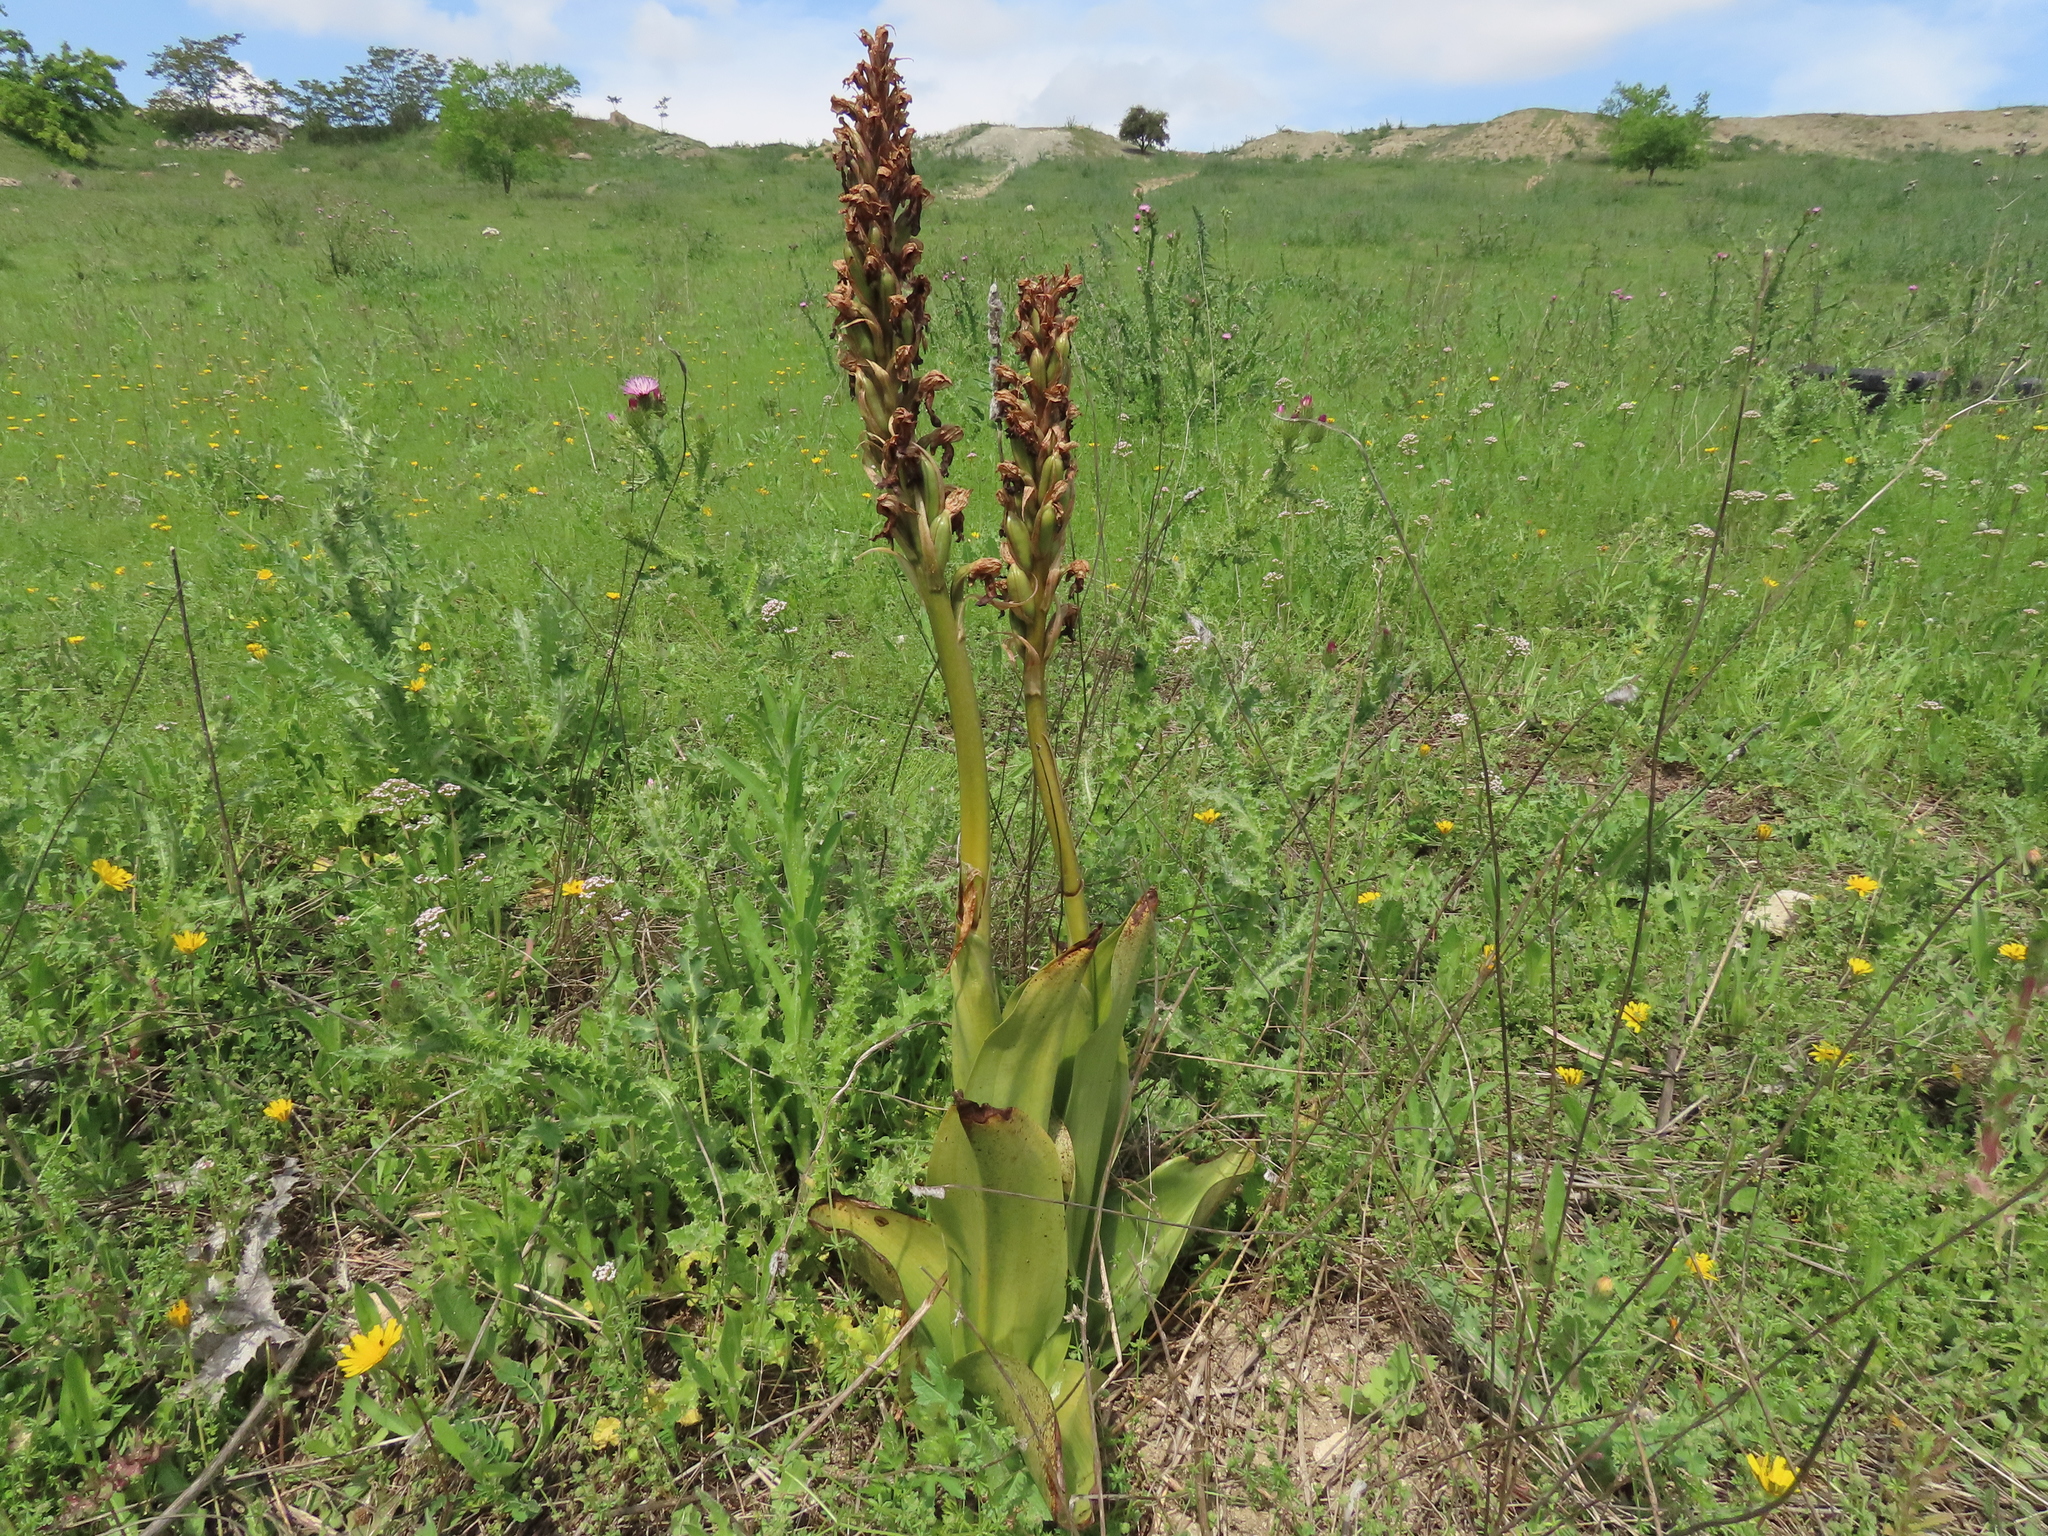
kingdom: Plantae
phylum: Tracheophyta
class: Liliopsida
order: Asparagales
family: Orchidaceae
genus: Himantoglossum
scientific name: Himantoglossum robertianum
